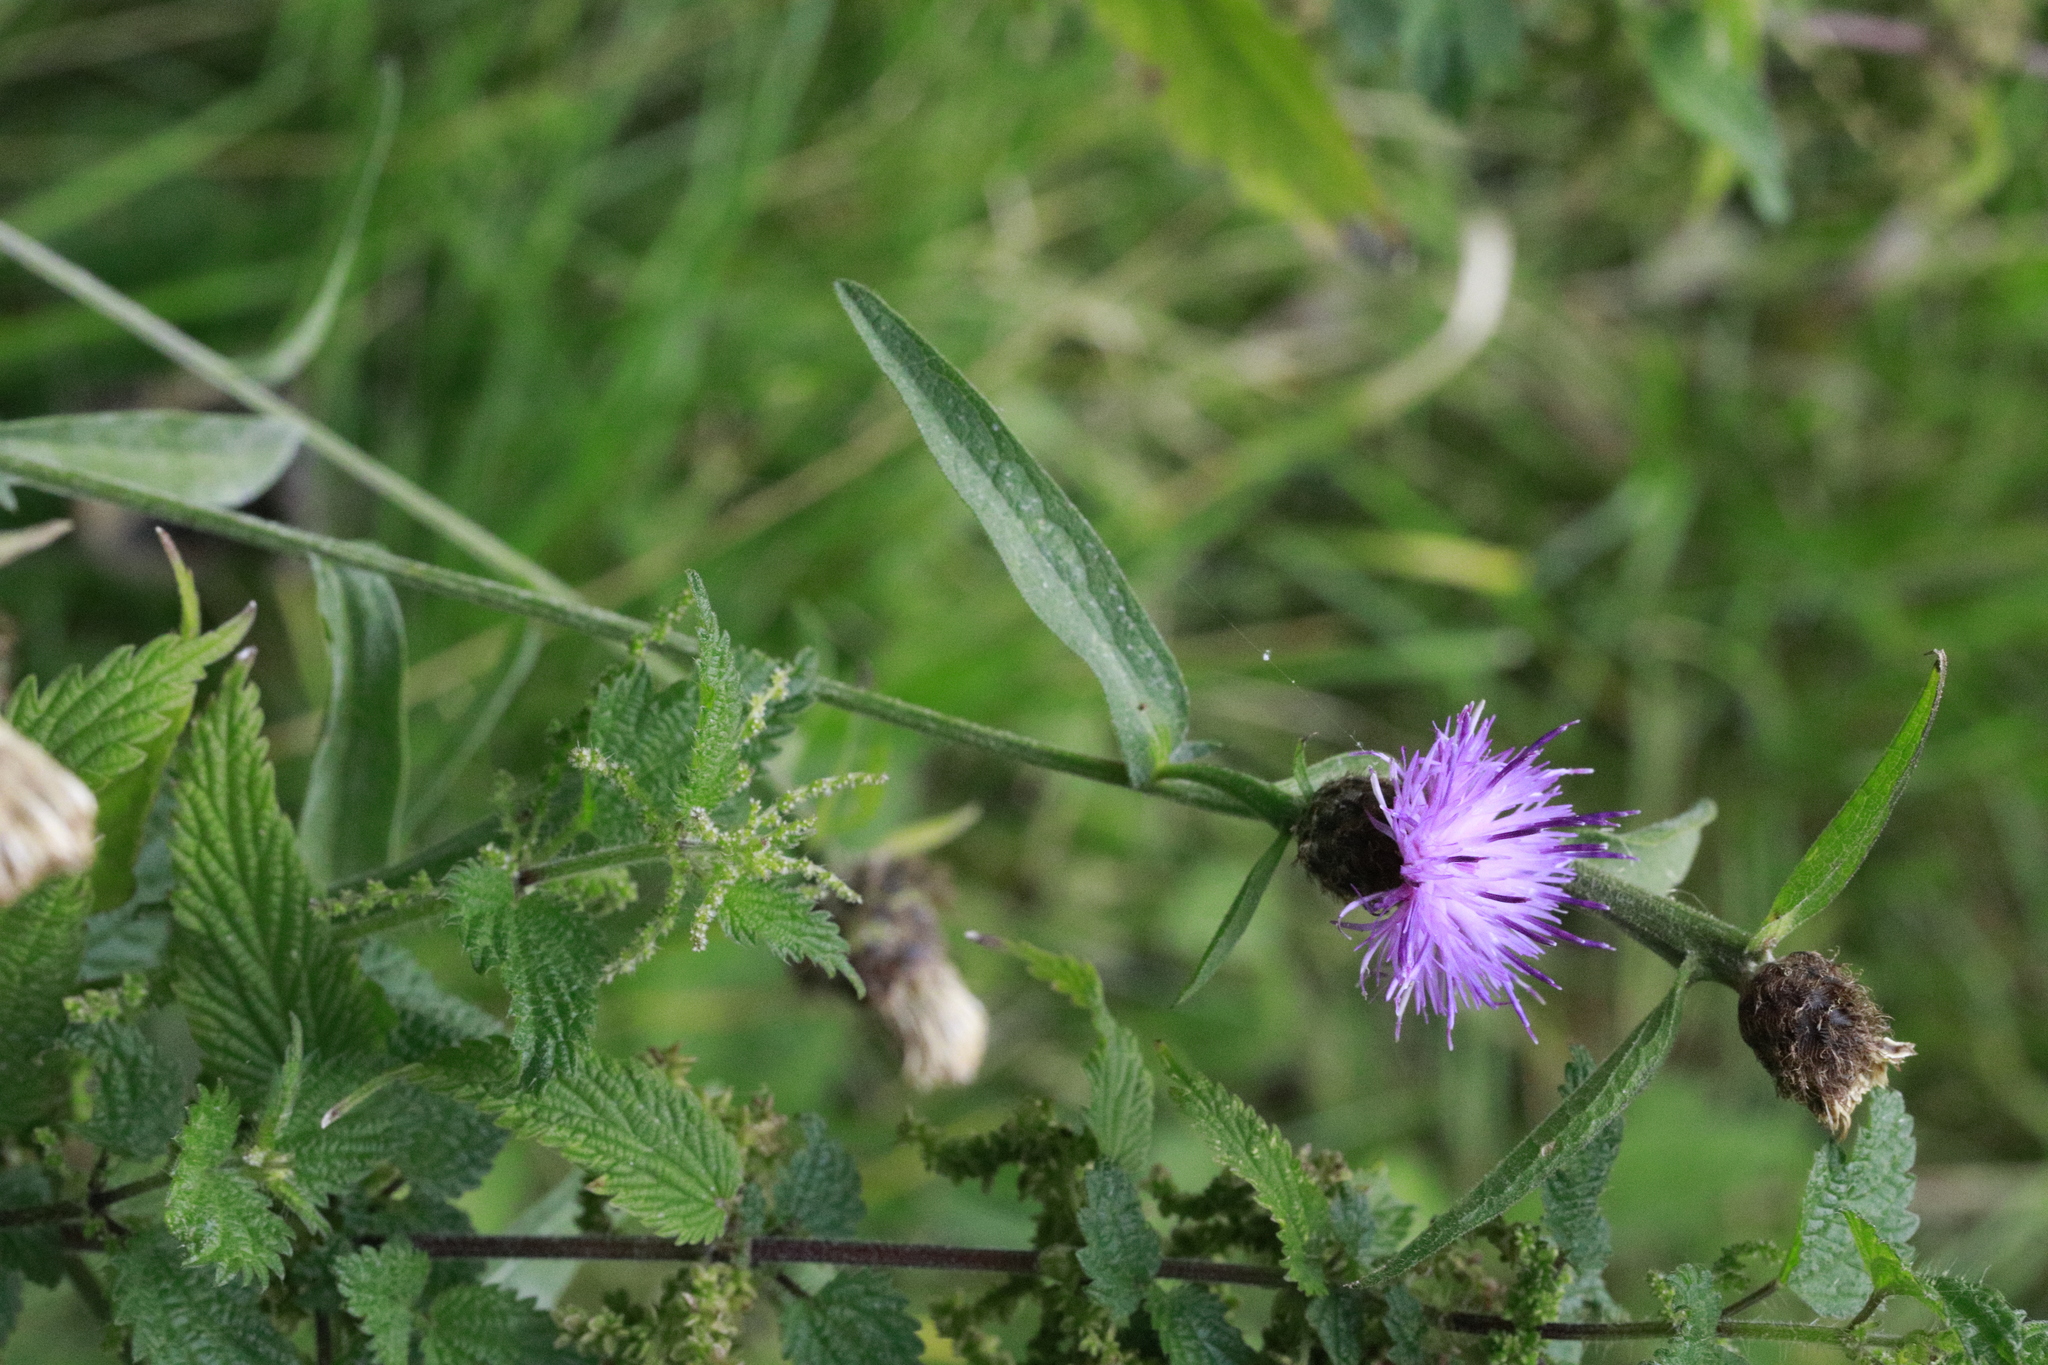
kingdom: Plantae
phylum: Tracheophyta
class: Magnoliopsida
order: Asterales
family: Asteraceae
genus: Centaurea
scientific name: Centaurea nigra
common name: Lesser knapweed
